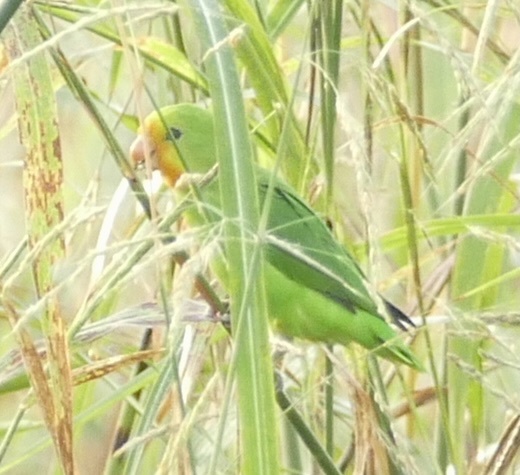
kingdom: Animalia
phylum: Chordata
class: Aves
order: Psittaciformes
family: Psittacidae
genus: Agapornis
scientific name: Agapornis pullarius
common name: Red-headed lovebird
